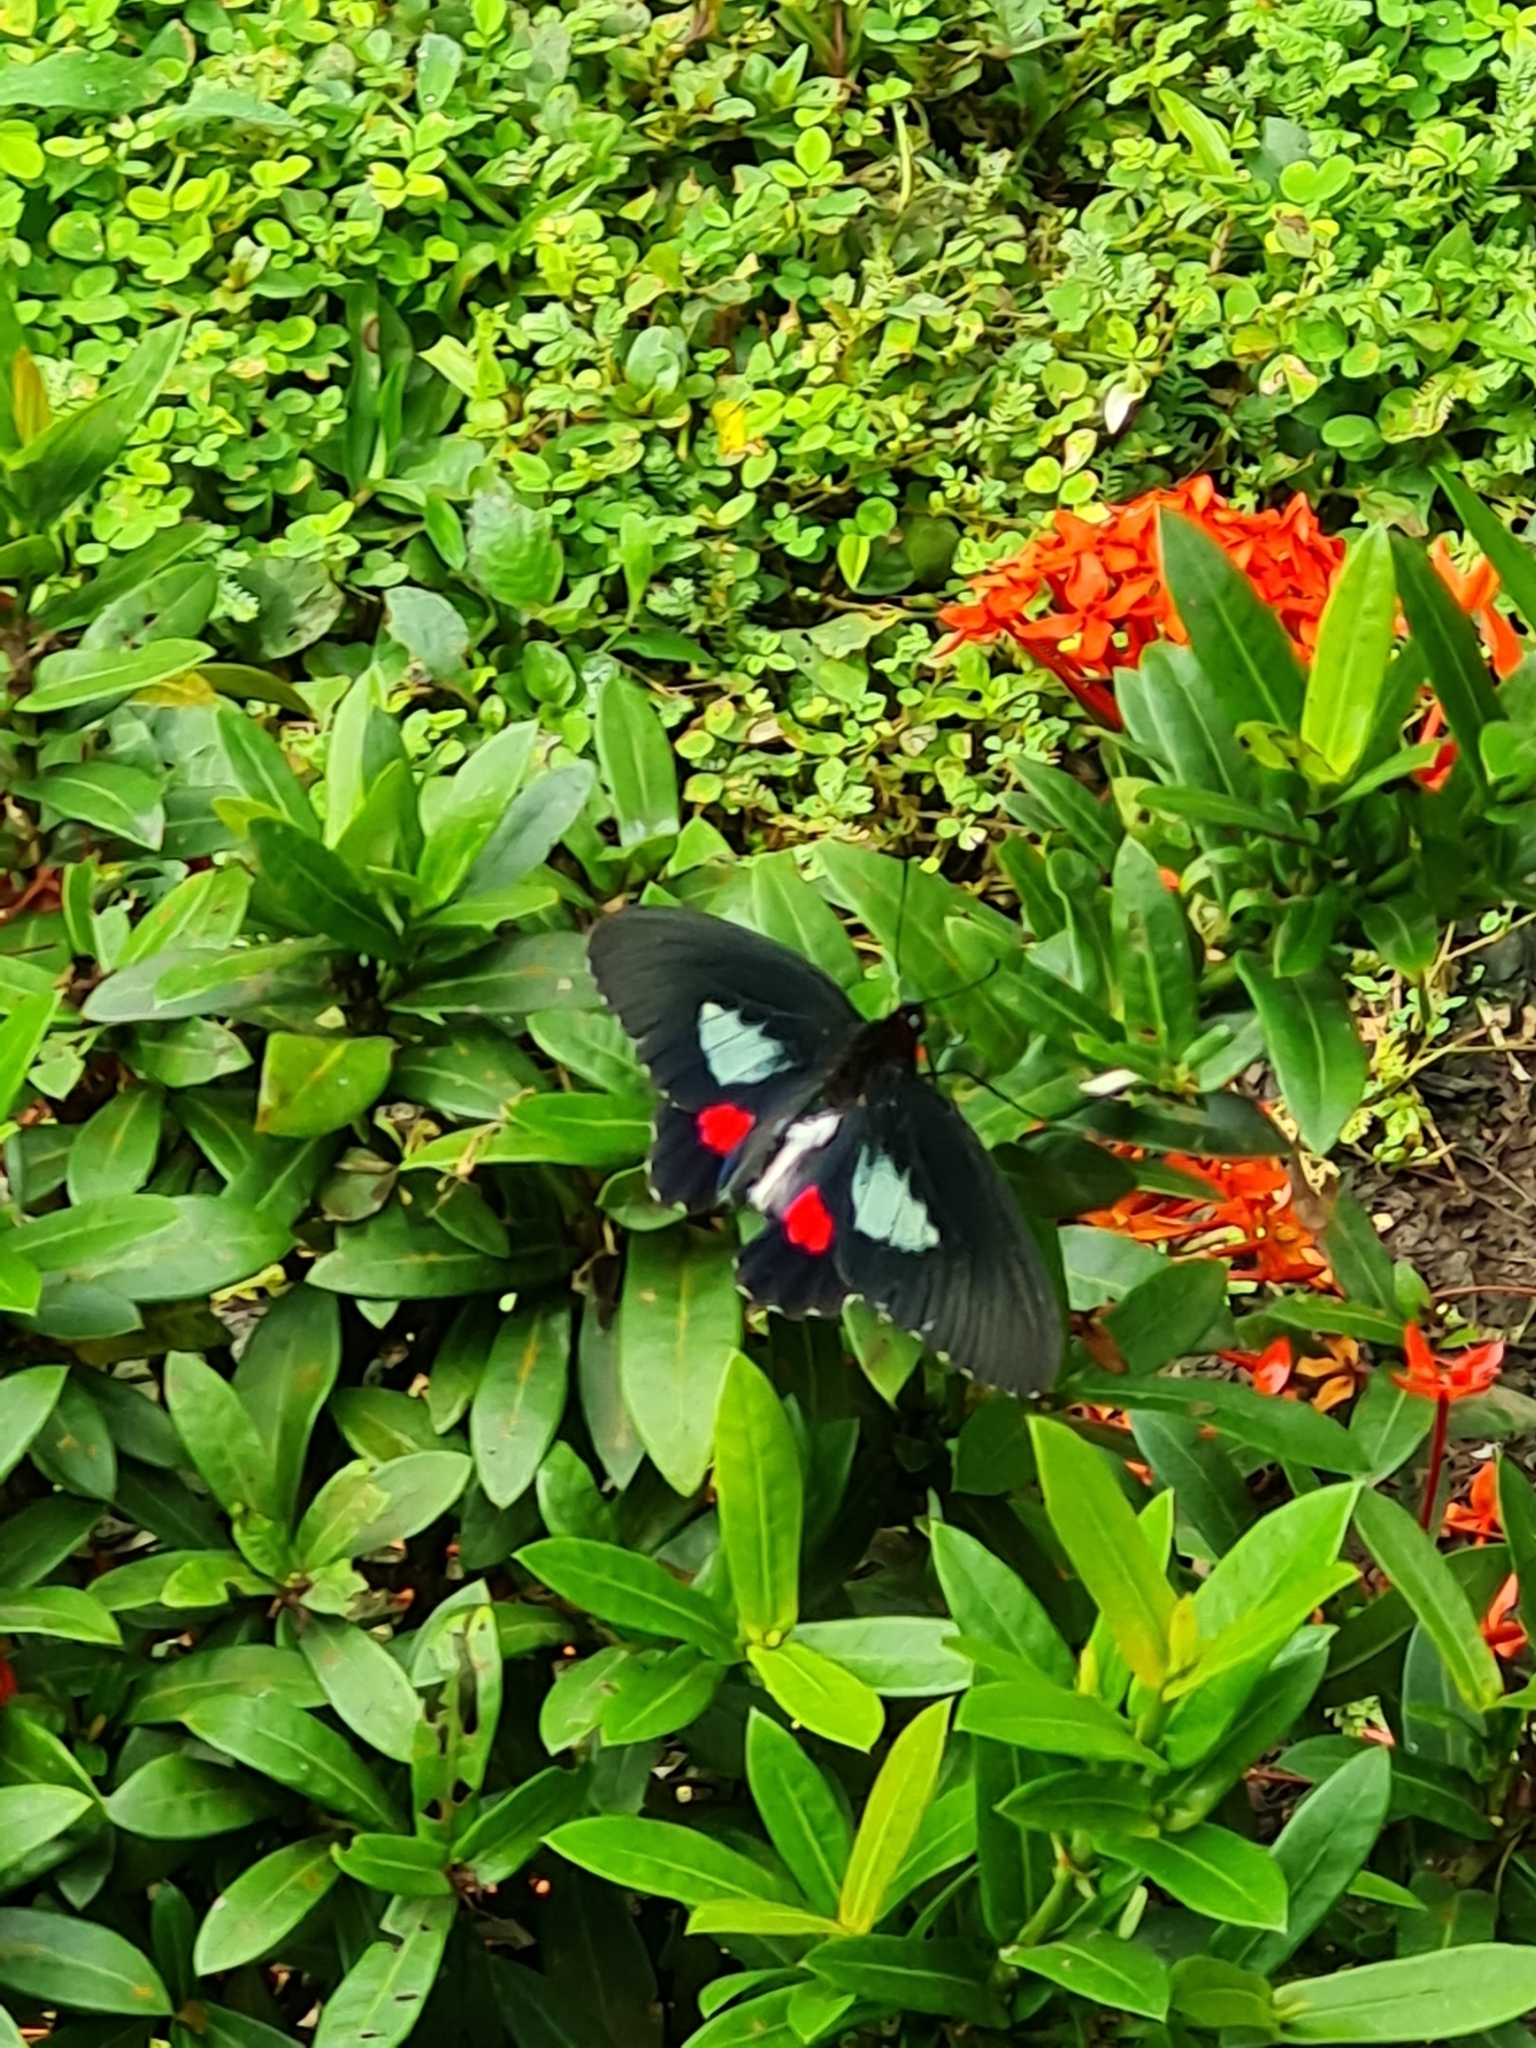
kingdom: Animalia
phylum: Arthropoda
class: Insecta
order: Lepidoptera
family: Papilionidae
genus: Parides
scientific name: Parides anchises
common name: Cattle heart
